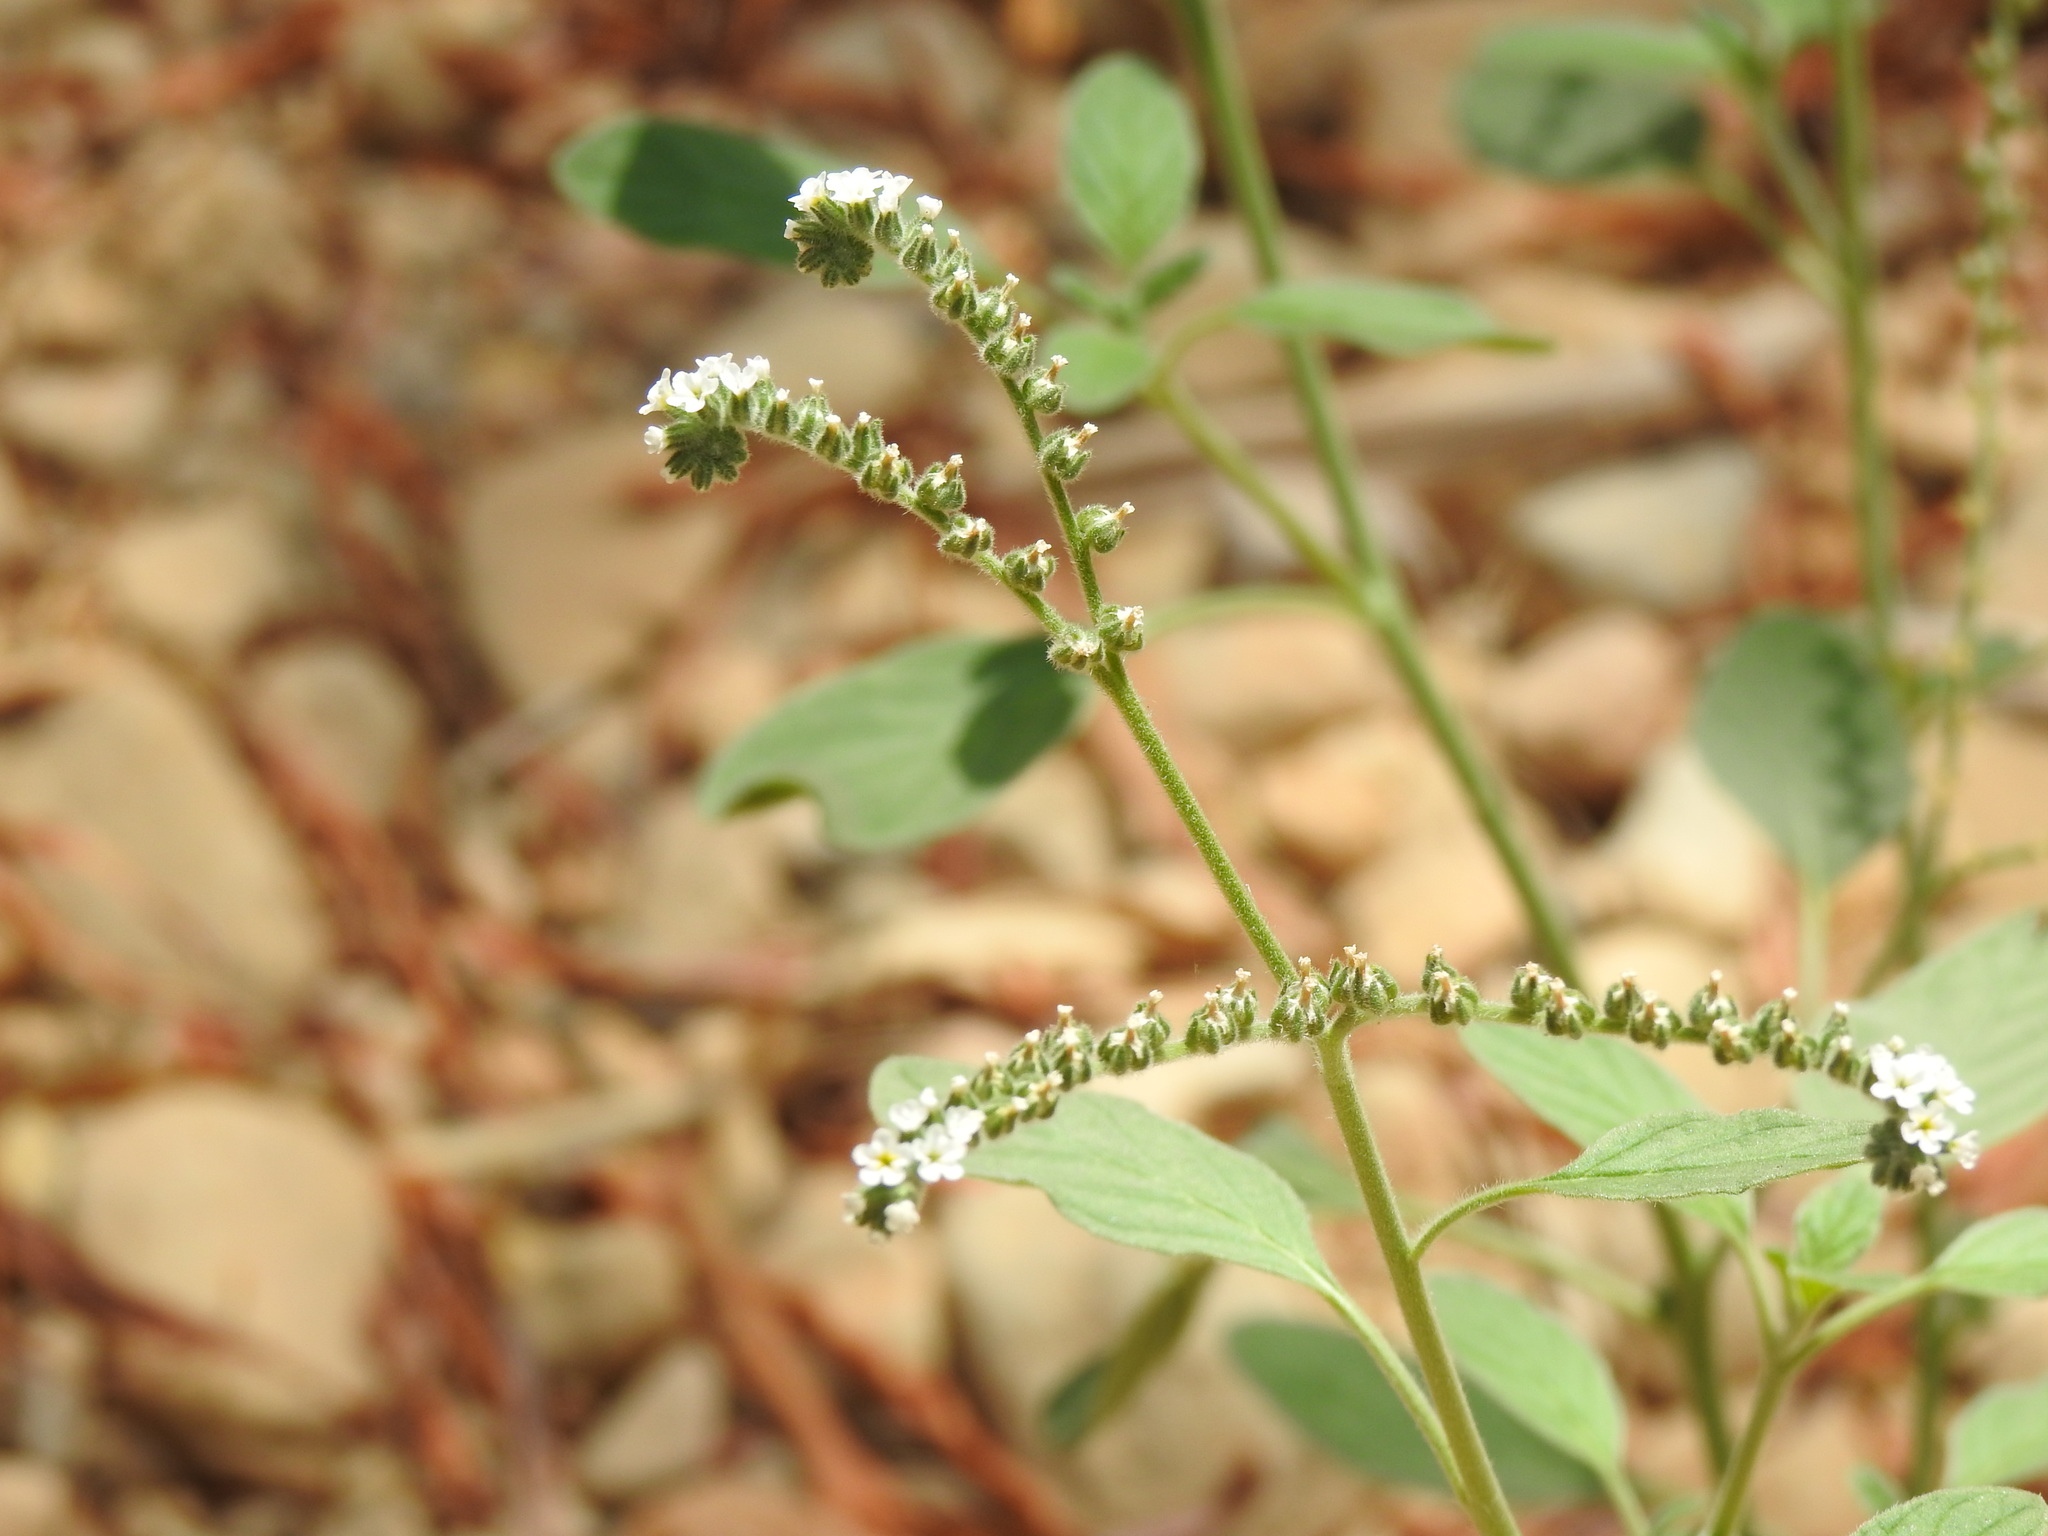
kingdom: Plantae
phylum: Tracheophyta
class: Magnoliopsida
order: Boraginales
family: Heliotropiaceae
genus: Heliotropium
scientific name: Heliotropium europaeum
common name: European heliotrope
